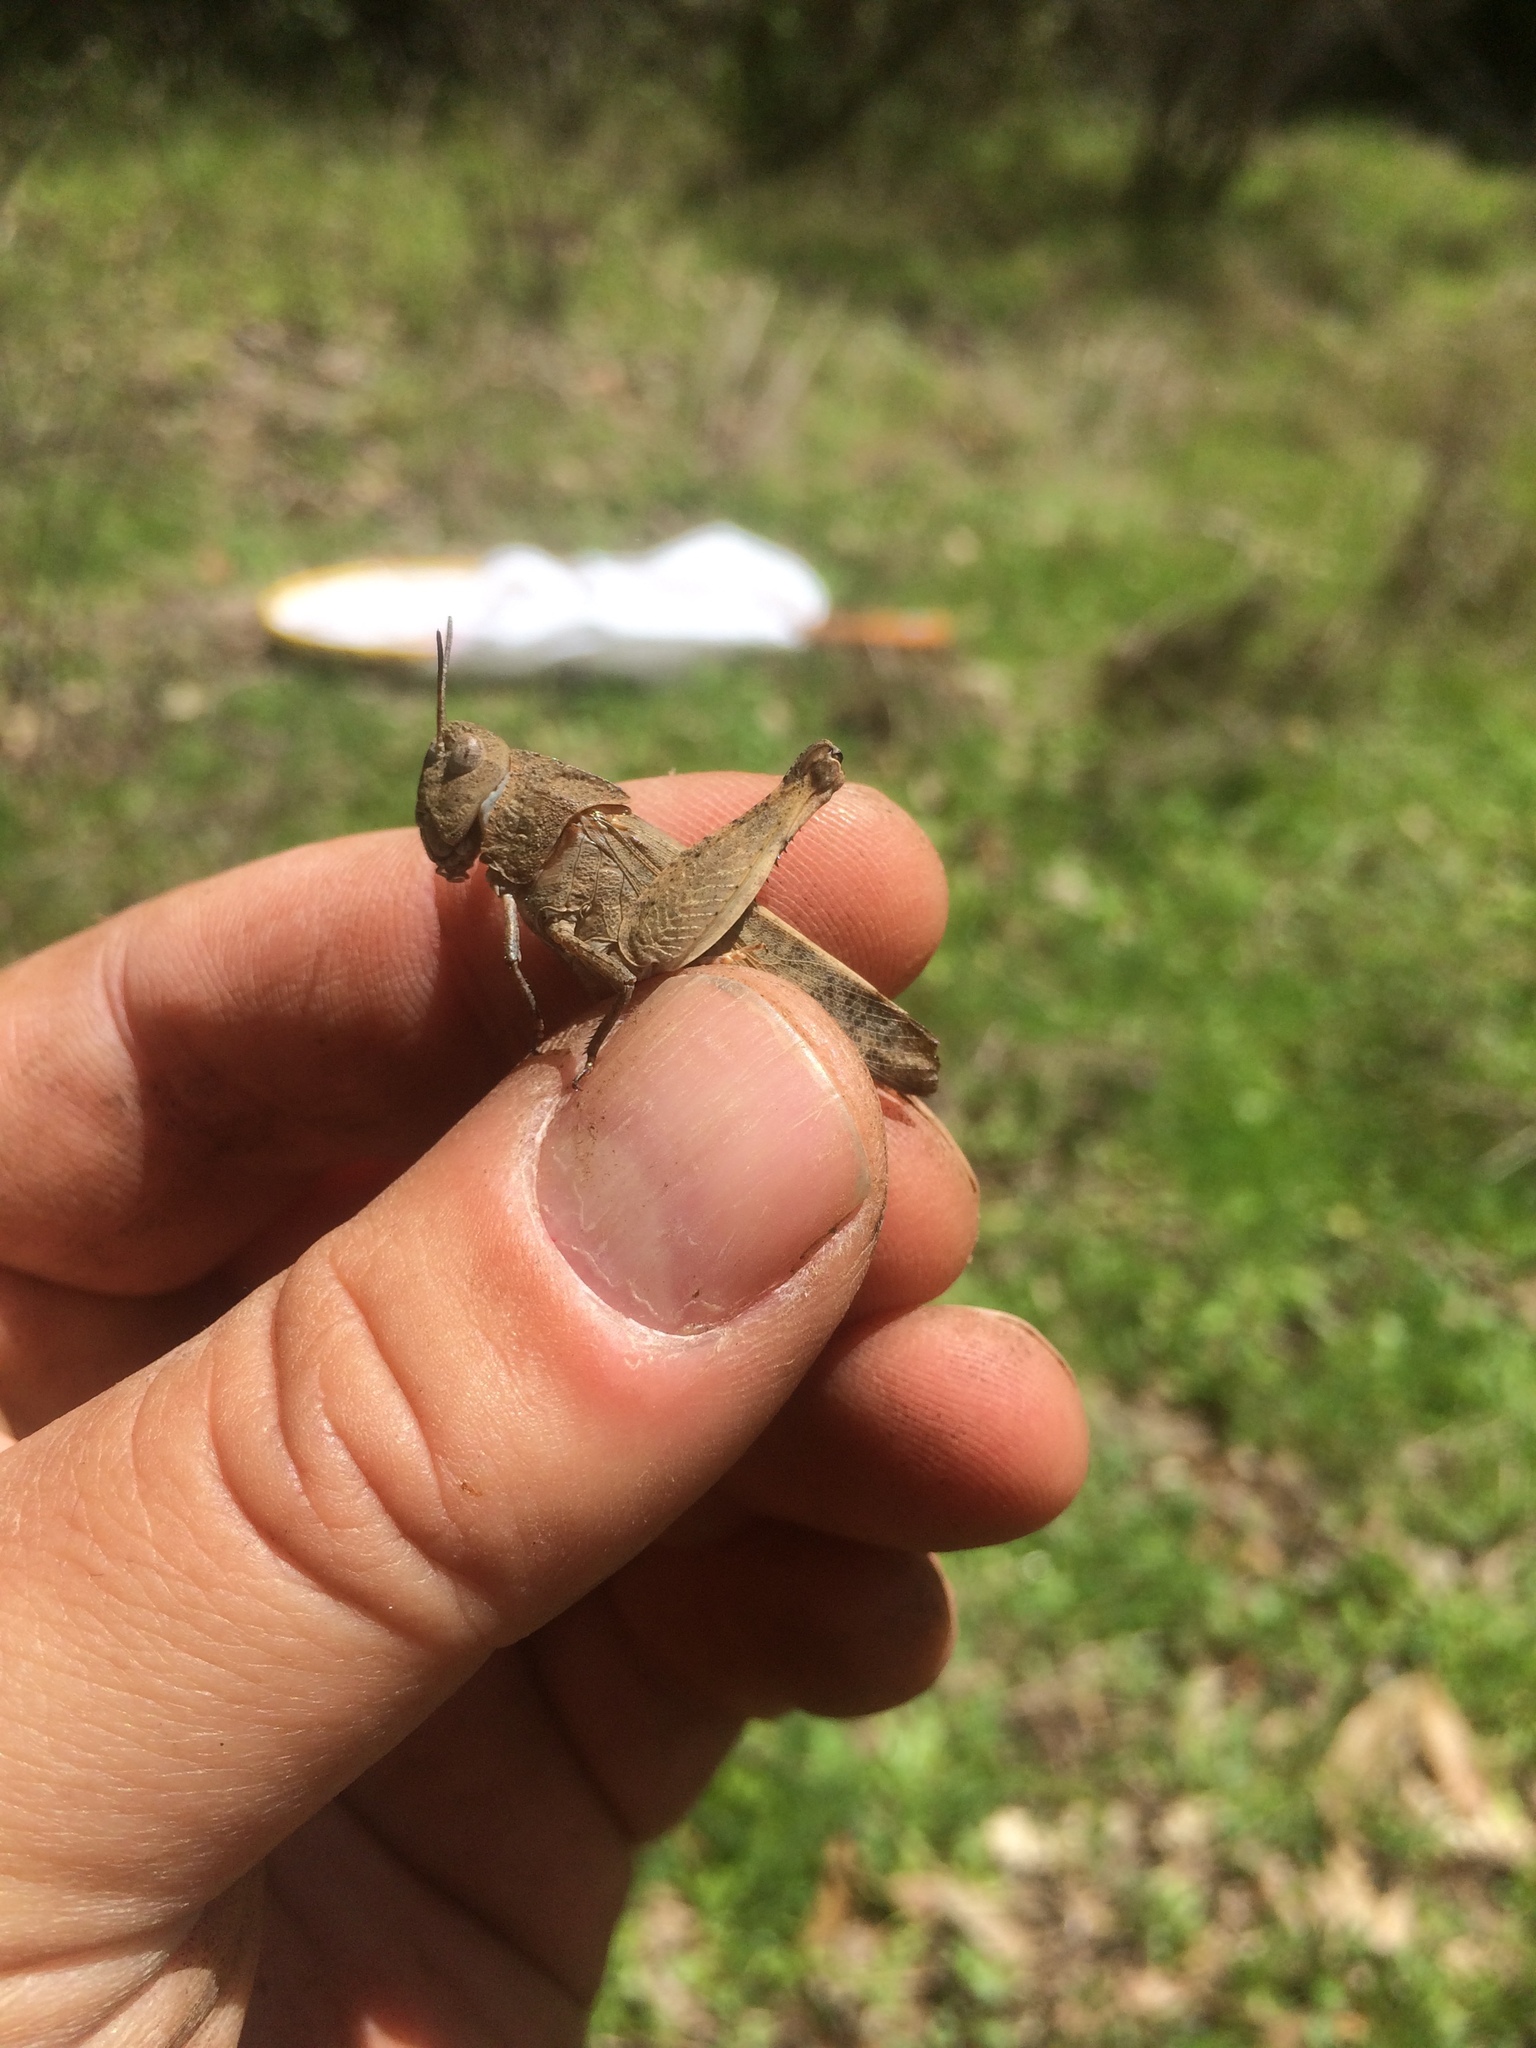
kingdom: Animalia
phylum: Arthropoda
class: Insecta
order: Orthoptera
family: Acrididae
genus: Arphia
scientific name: Arphia behrensi
